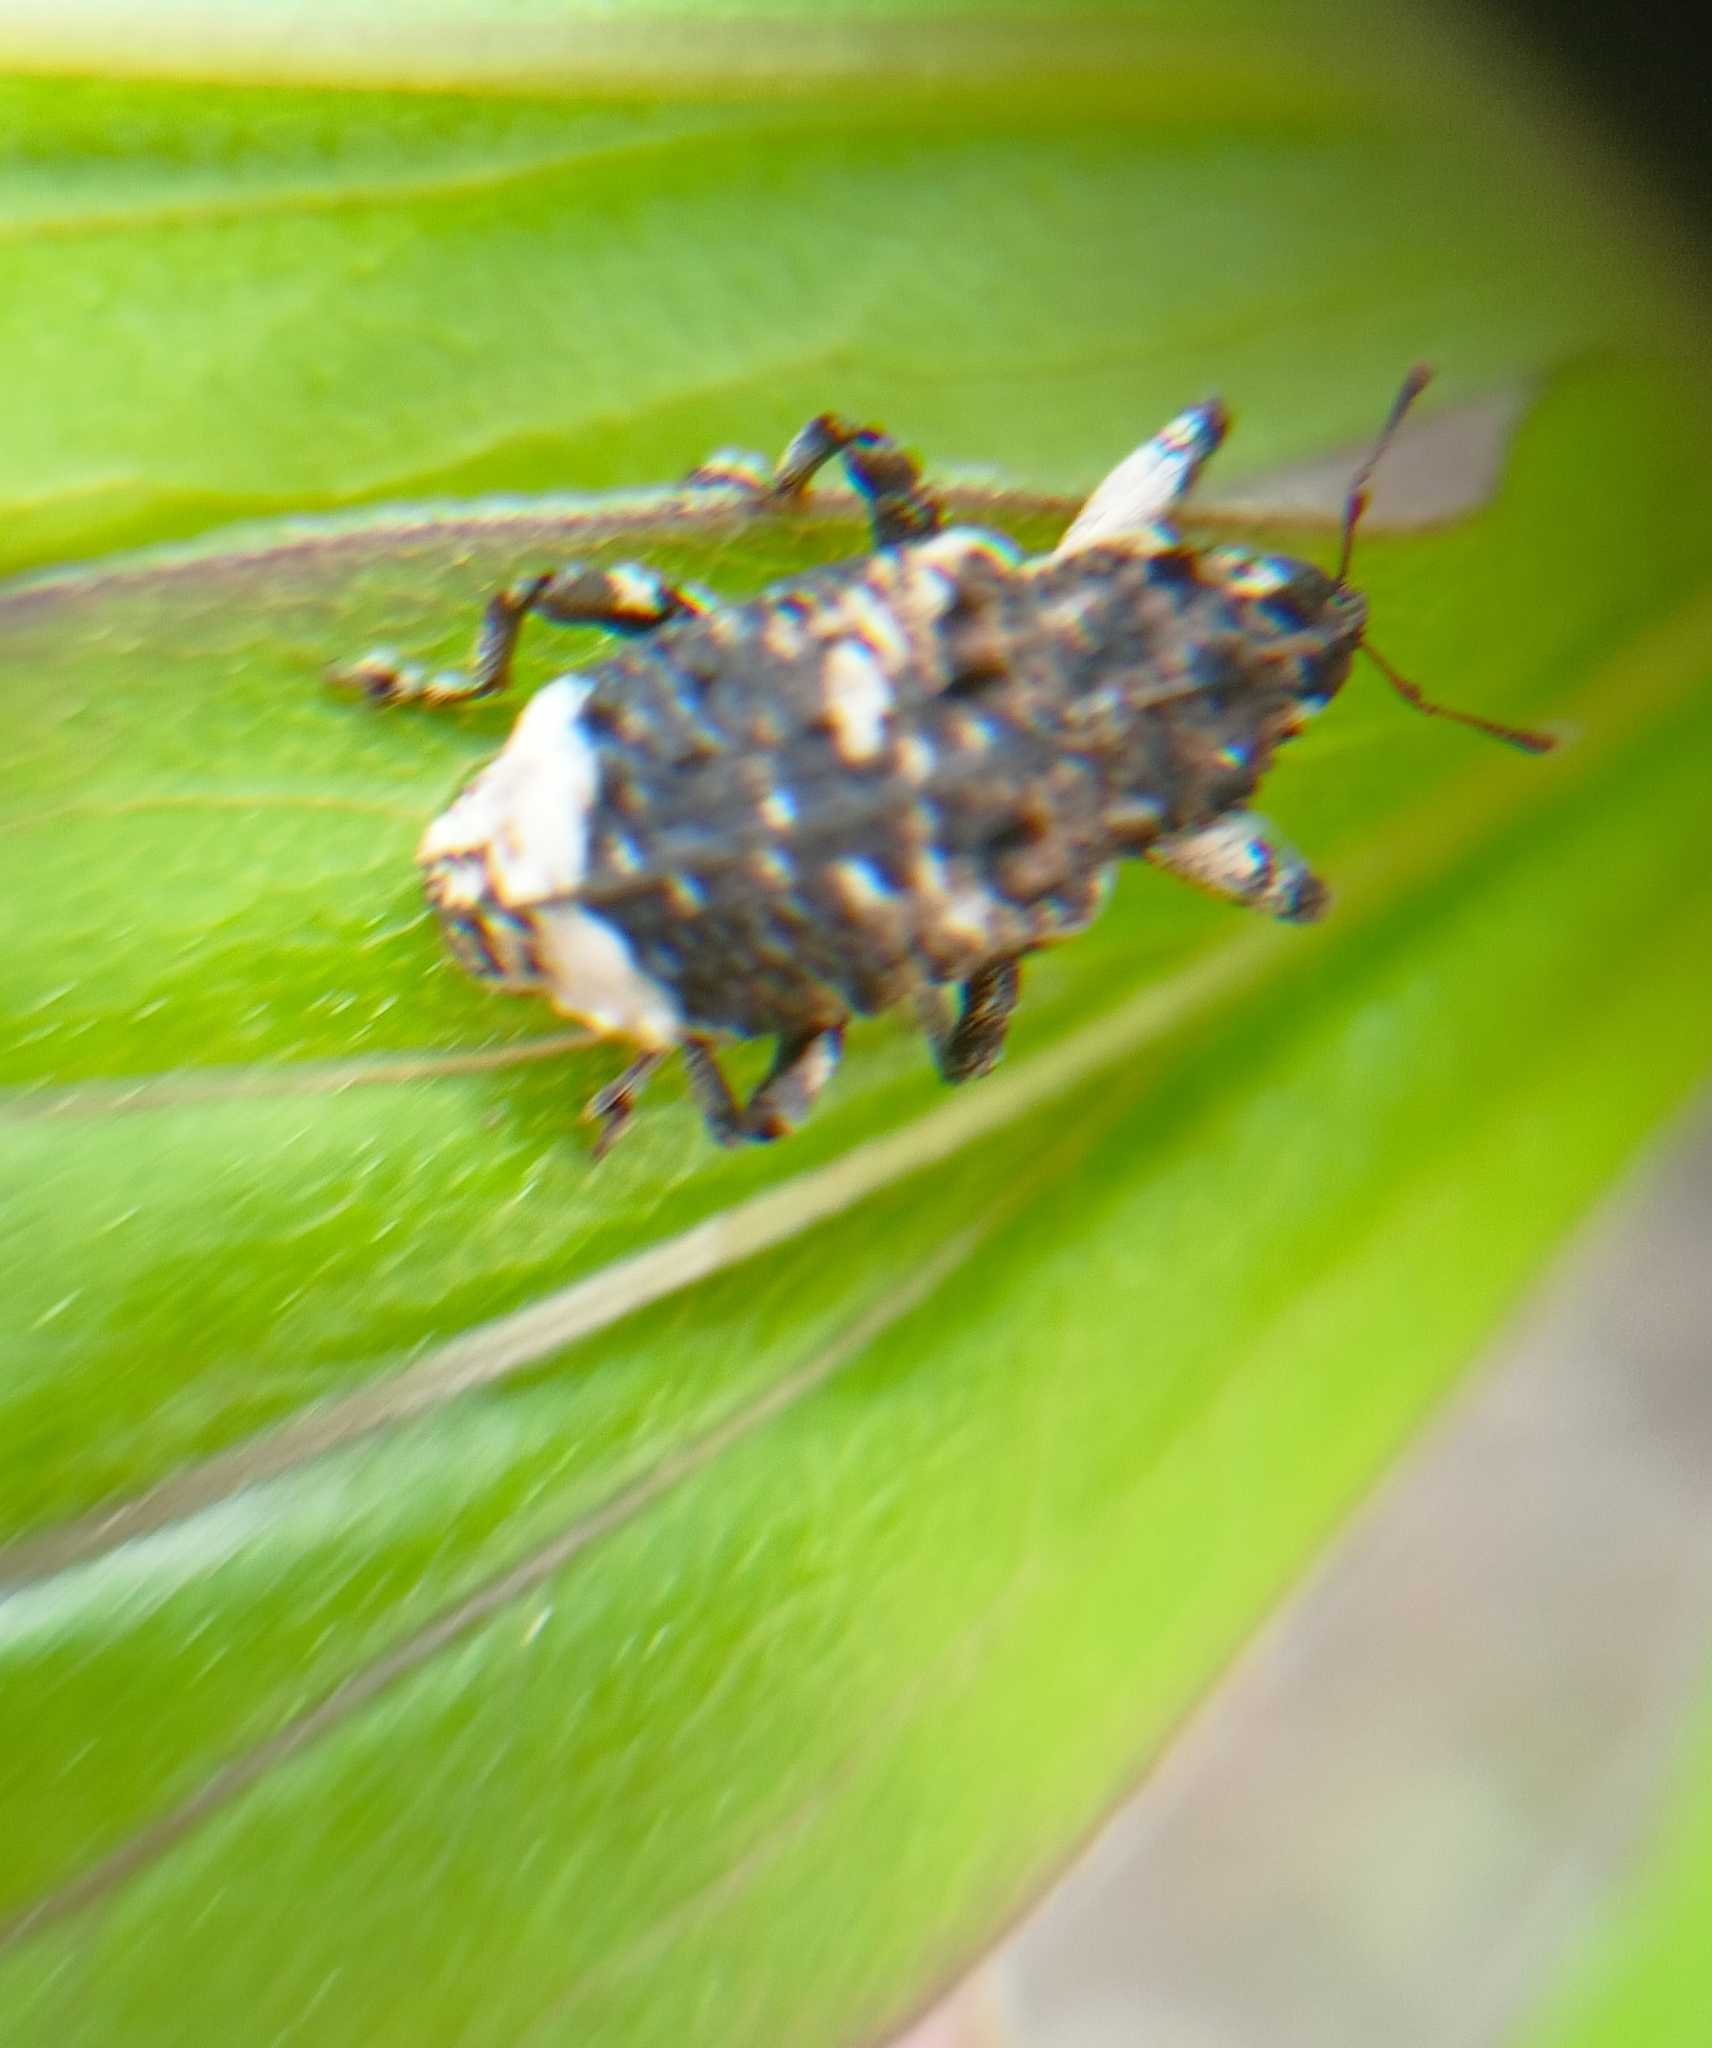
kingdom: Animalia
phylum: Arthropoda
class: Insecta
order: Coleoptera
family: Curculionidae
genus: Cryptorhynchus
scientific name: Cryptorhynchus lapathi
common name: Weevil
